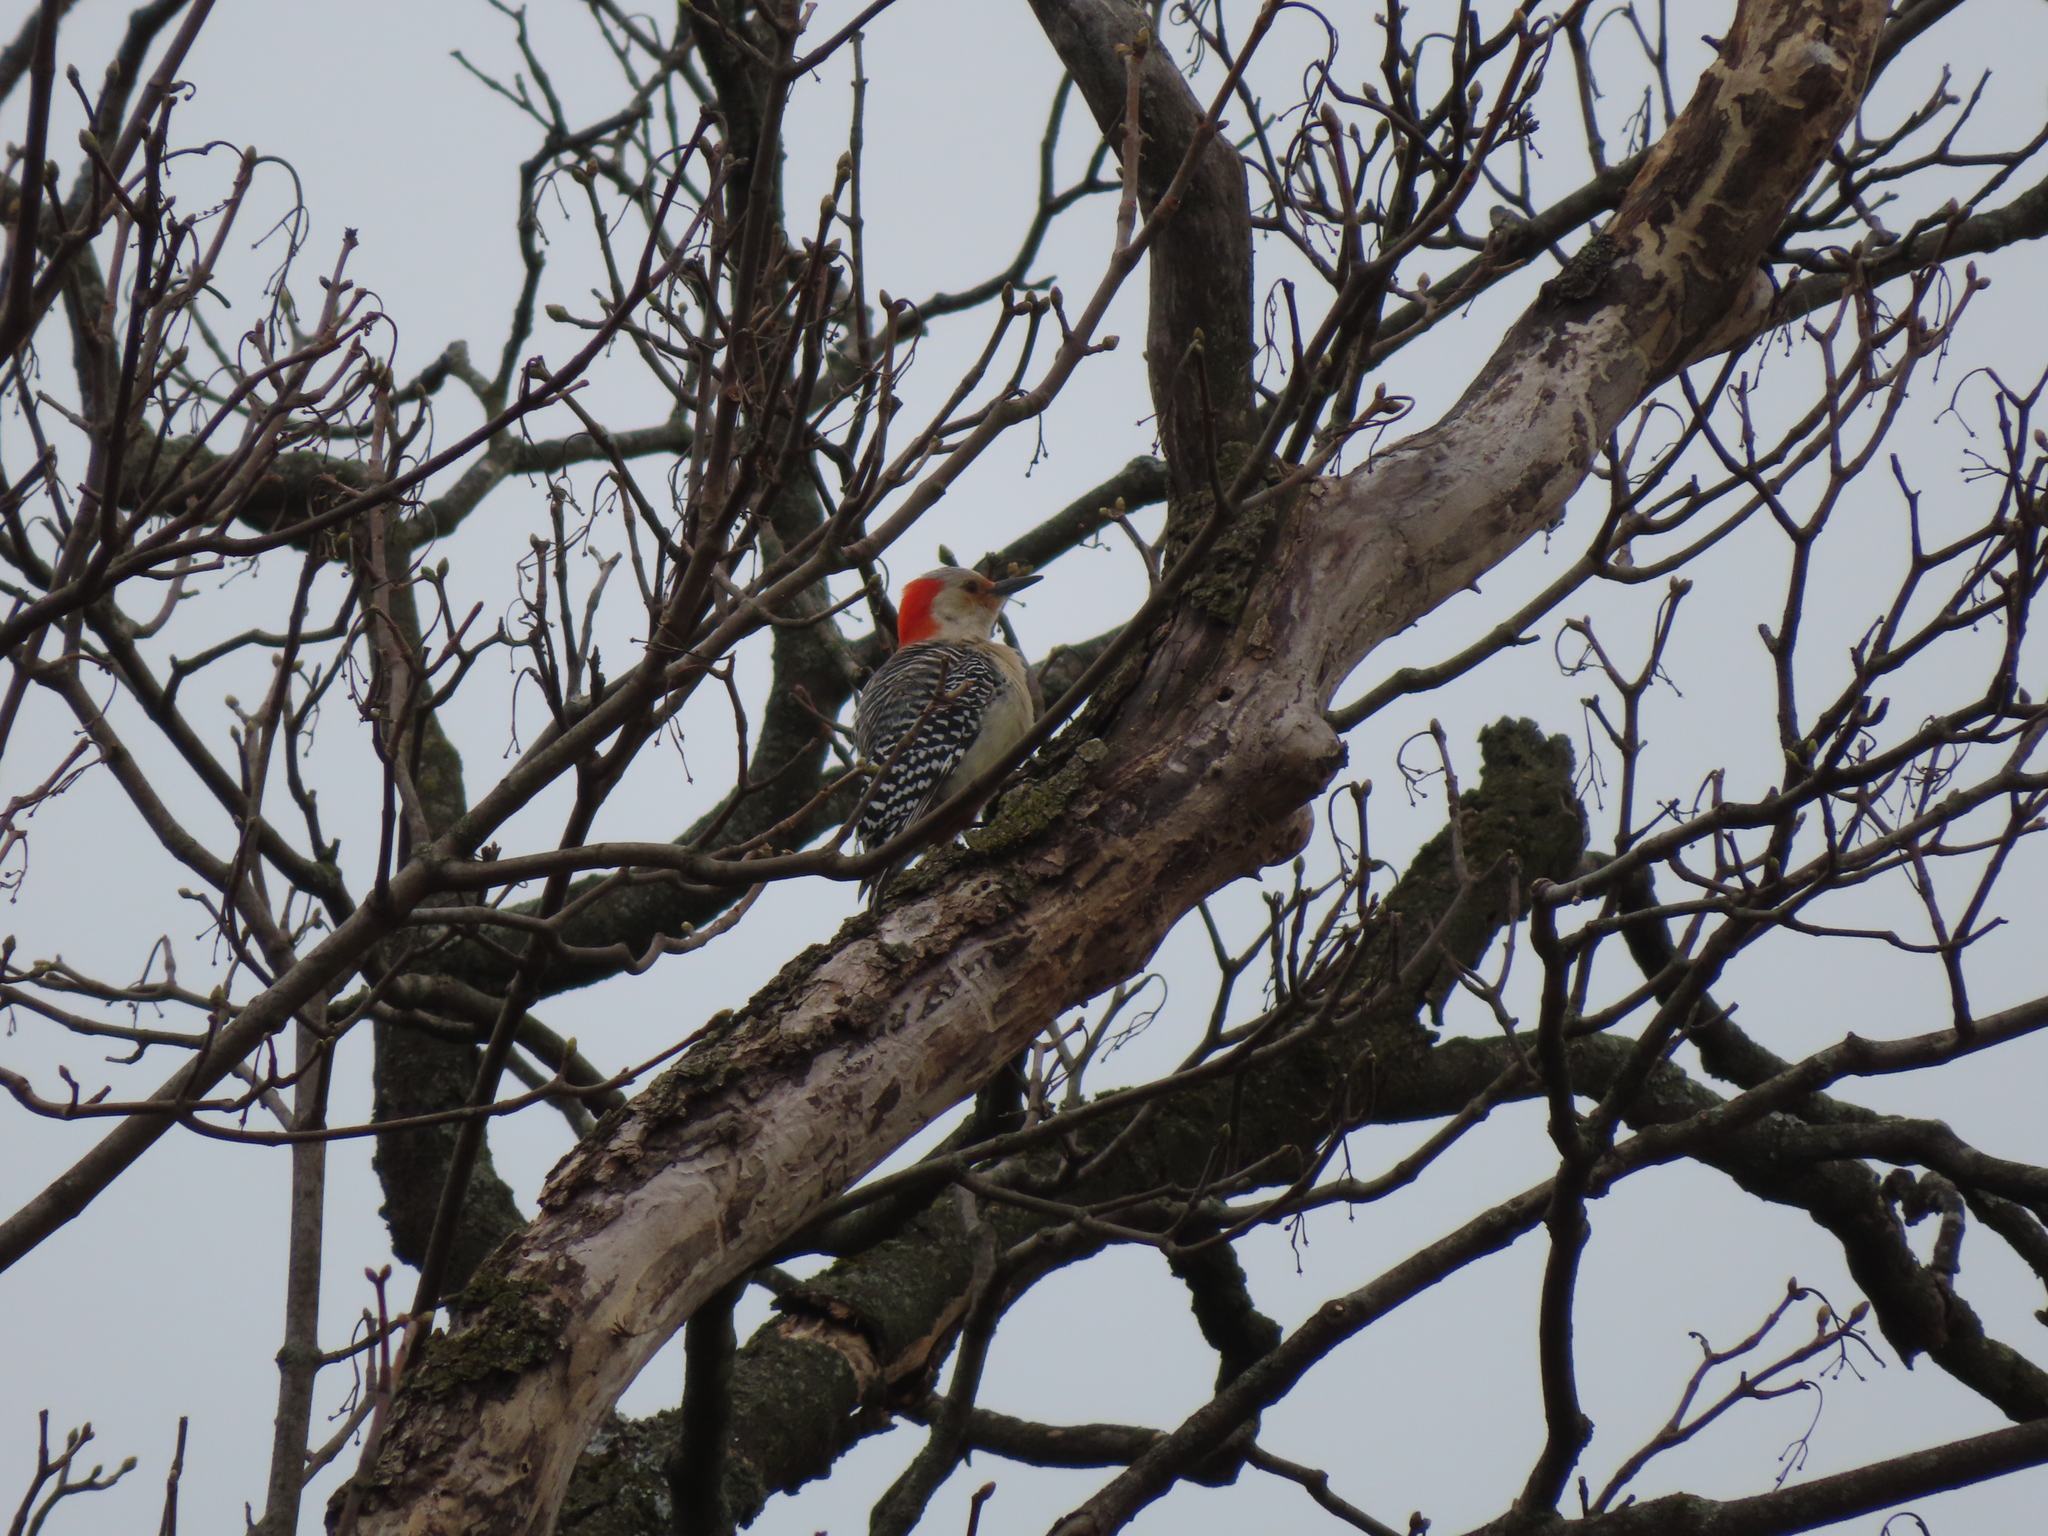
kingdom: Animalia
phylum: Chordata
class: Aves
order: Piciformes
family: Picidae
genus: Melanerpes
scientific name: Melanerpes carolinus
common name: Red-bellied woodpecker
